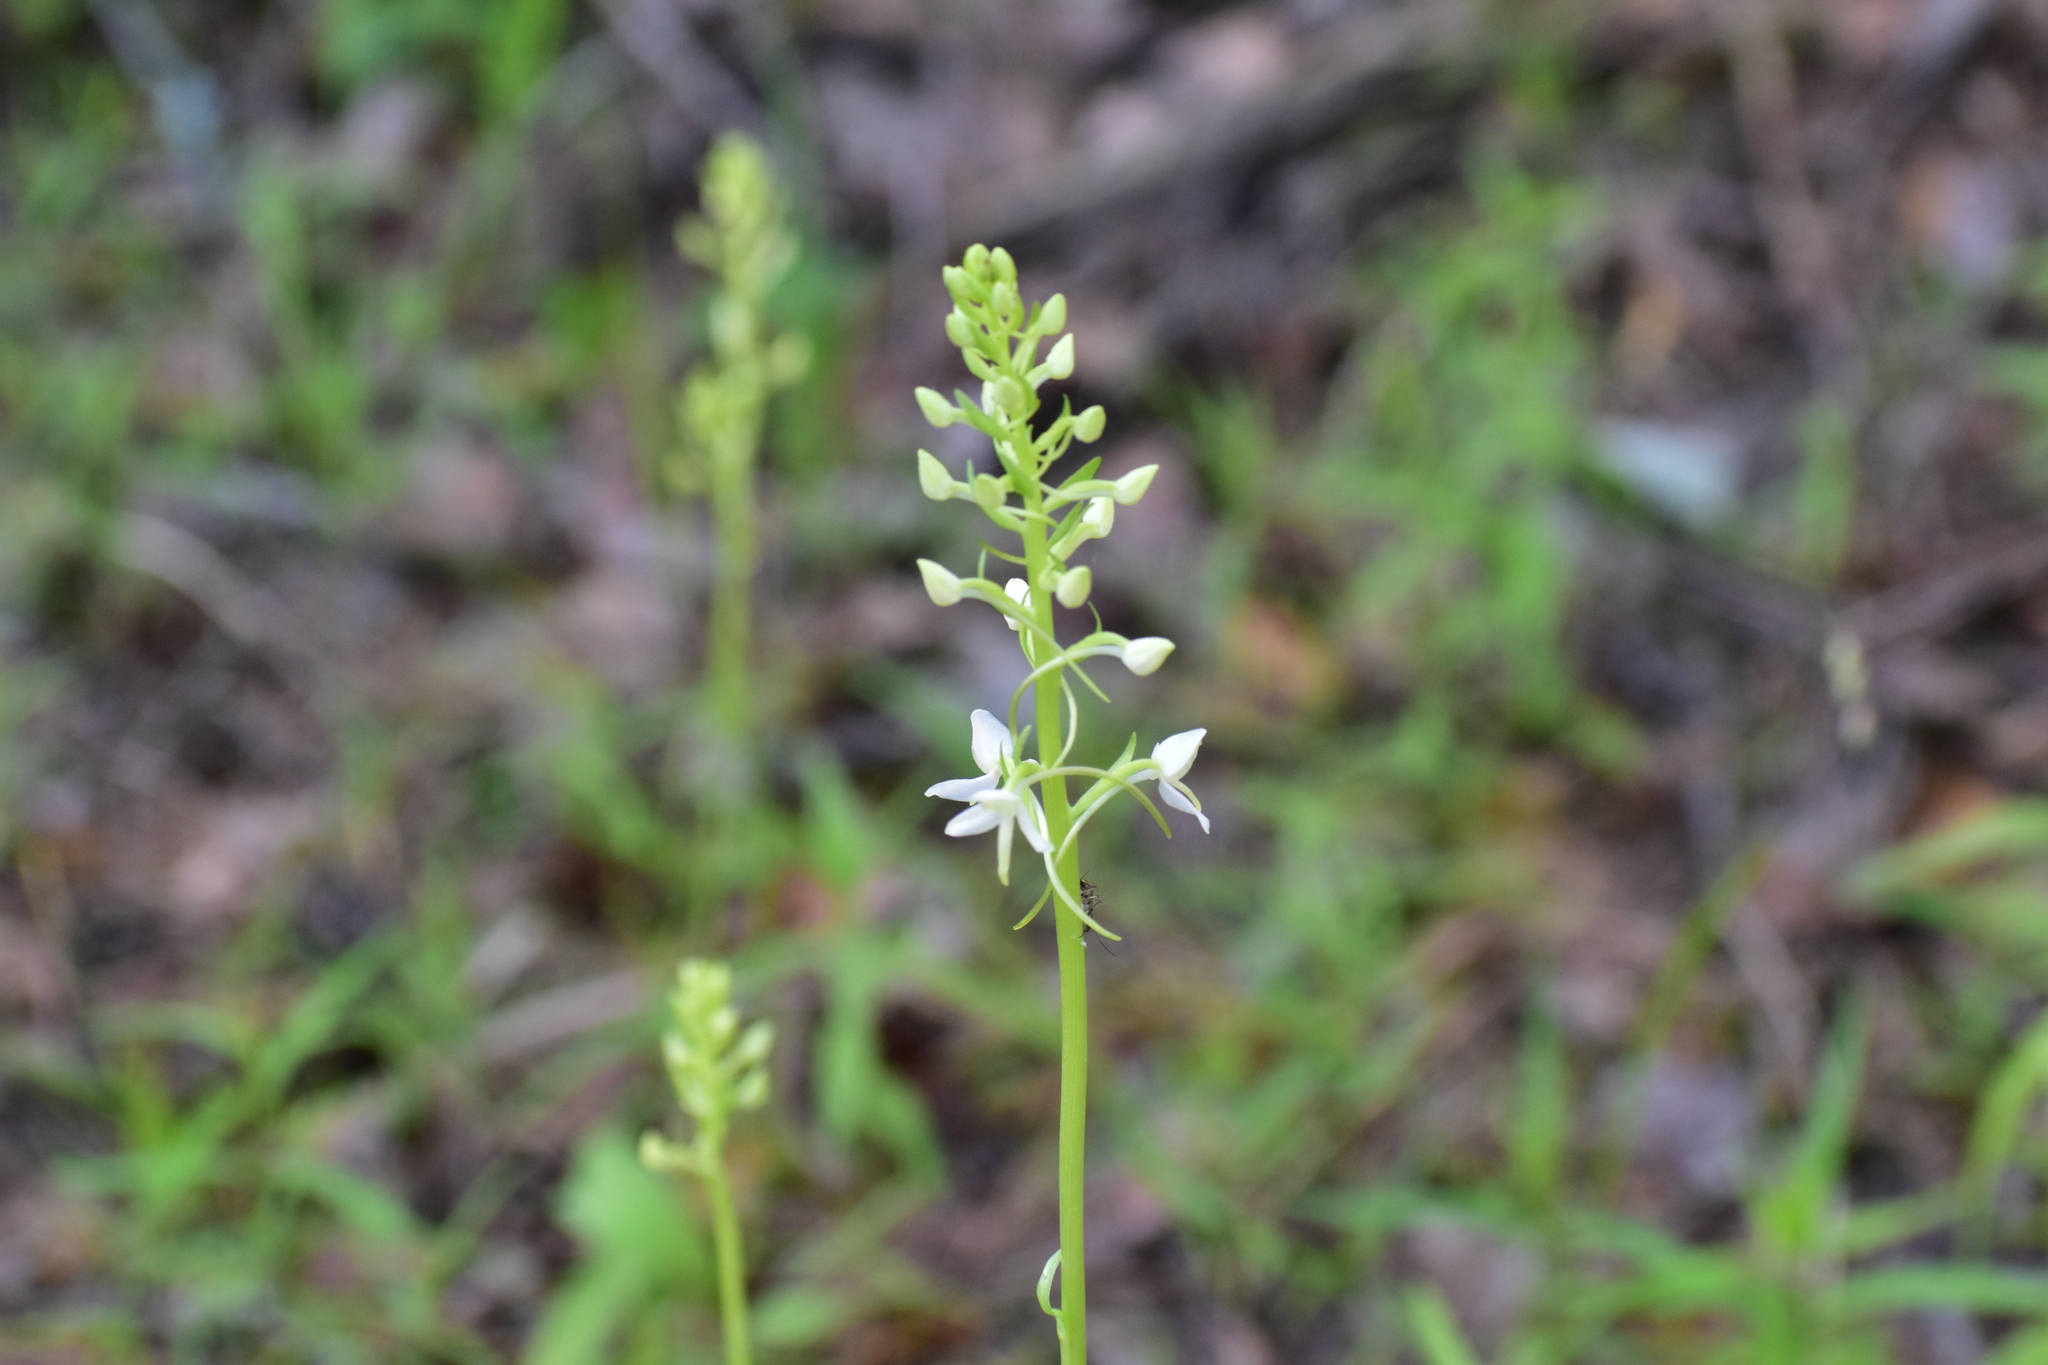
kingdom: Plantae
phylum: Tracheophyta
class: Liliopsida
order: Asparagales
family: Orchidaceae
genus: Platanthera
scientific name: Platanthera bifolia
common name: Lesser butterfly-orchid
